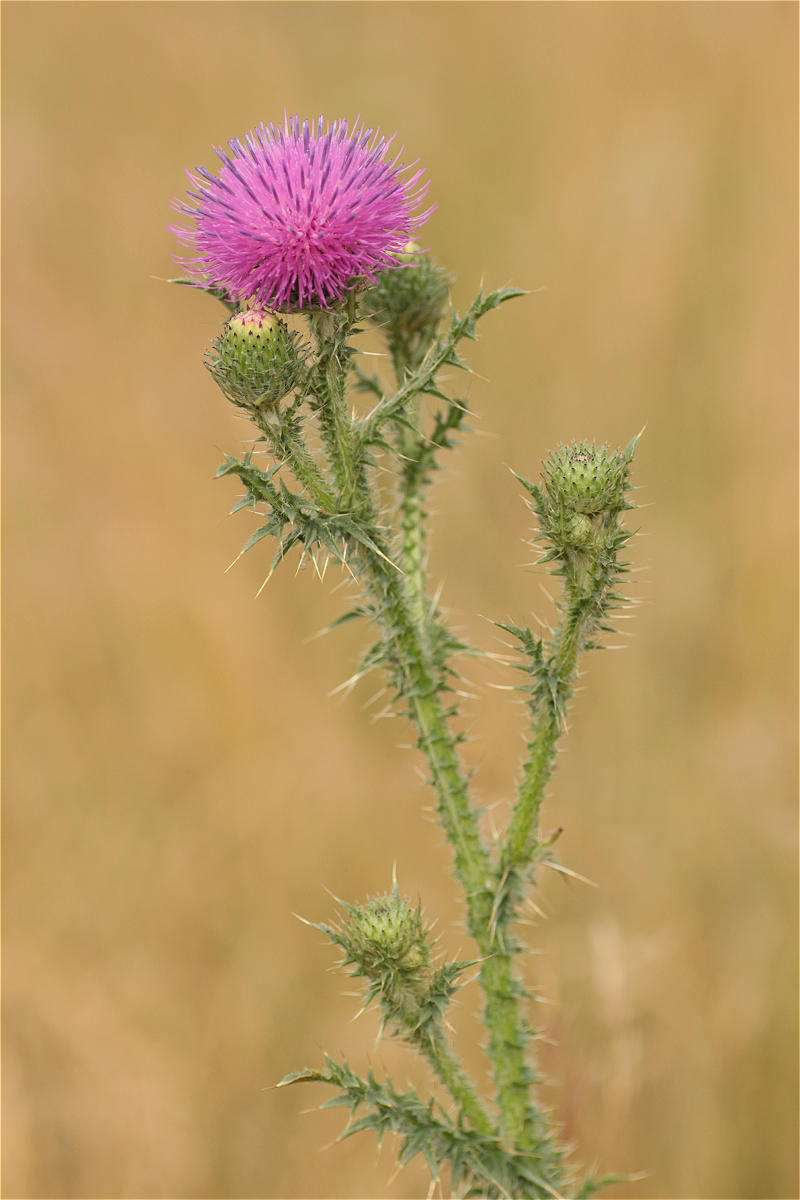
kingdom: Plantae
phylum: Tracheophyta
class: Magnoliopsida
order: Asterales
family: Asteraceae
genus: Carduus
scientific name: Carduus acanthoides
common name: Plumeless thistle
